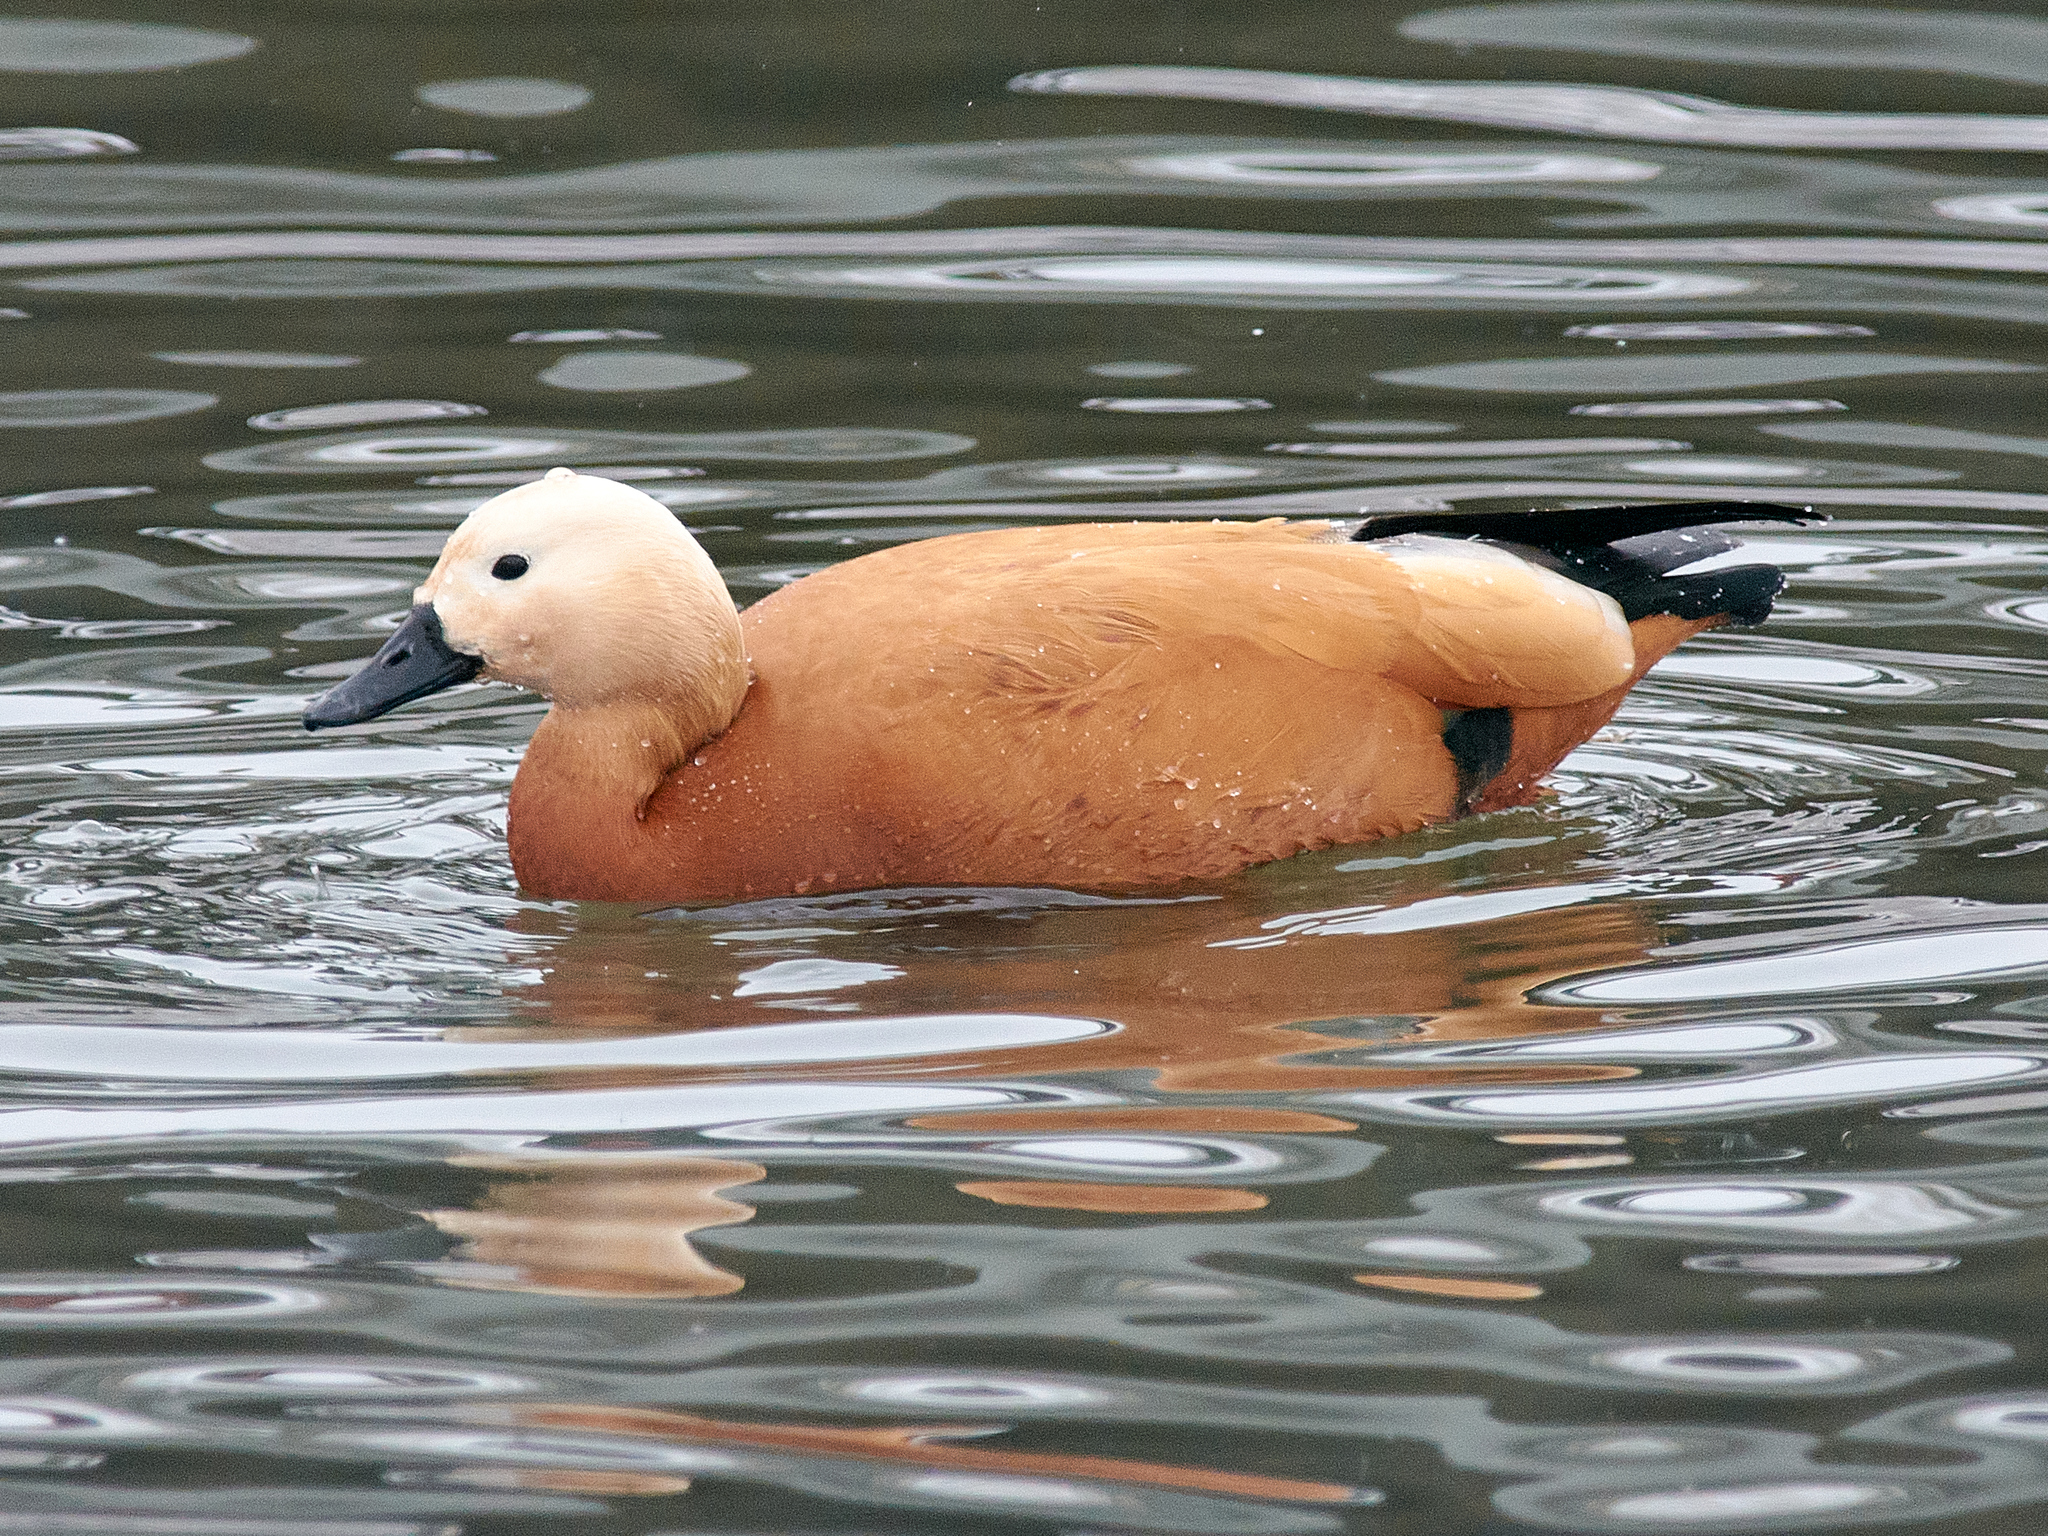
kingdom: Animalia
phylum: Chordata
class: Aves
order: Anseriformes
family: Anatidae
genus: Tadorna
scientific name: Tadorna ferruginea
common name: Ruddy shelduck
